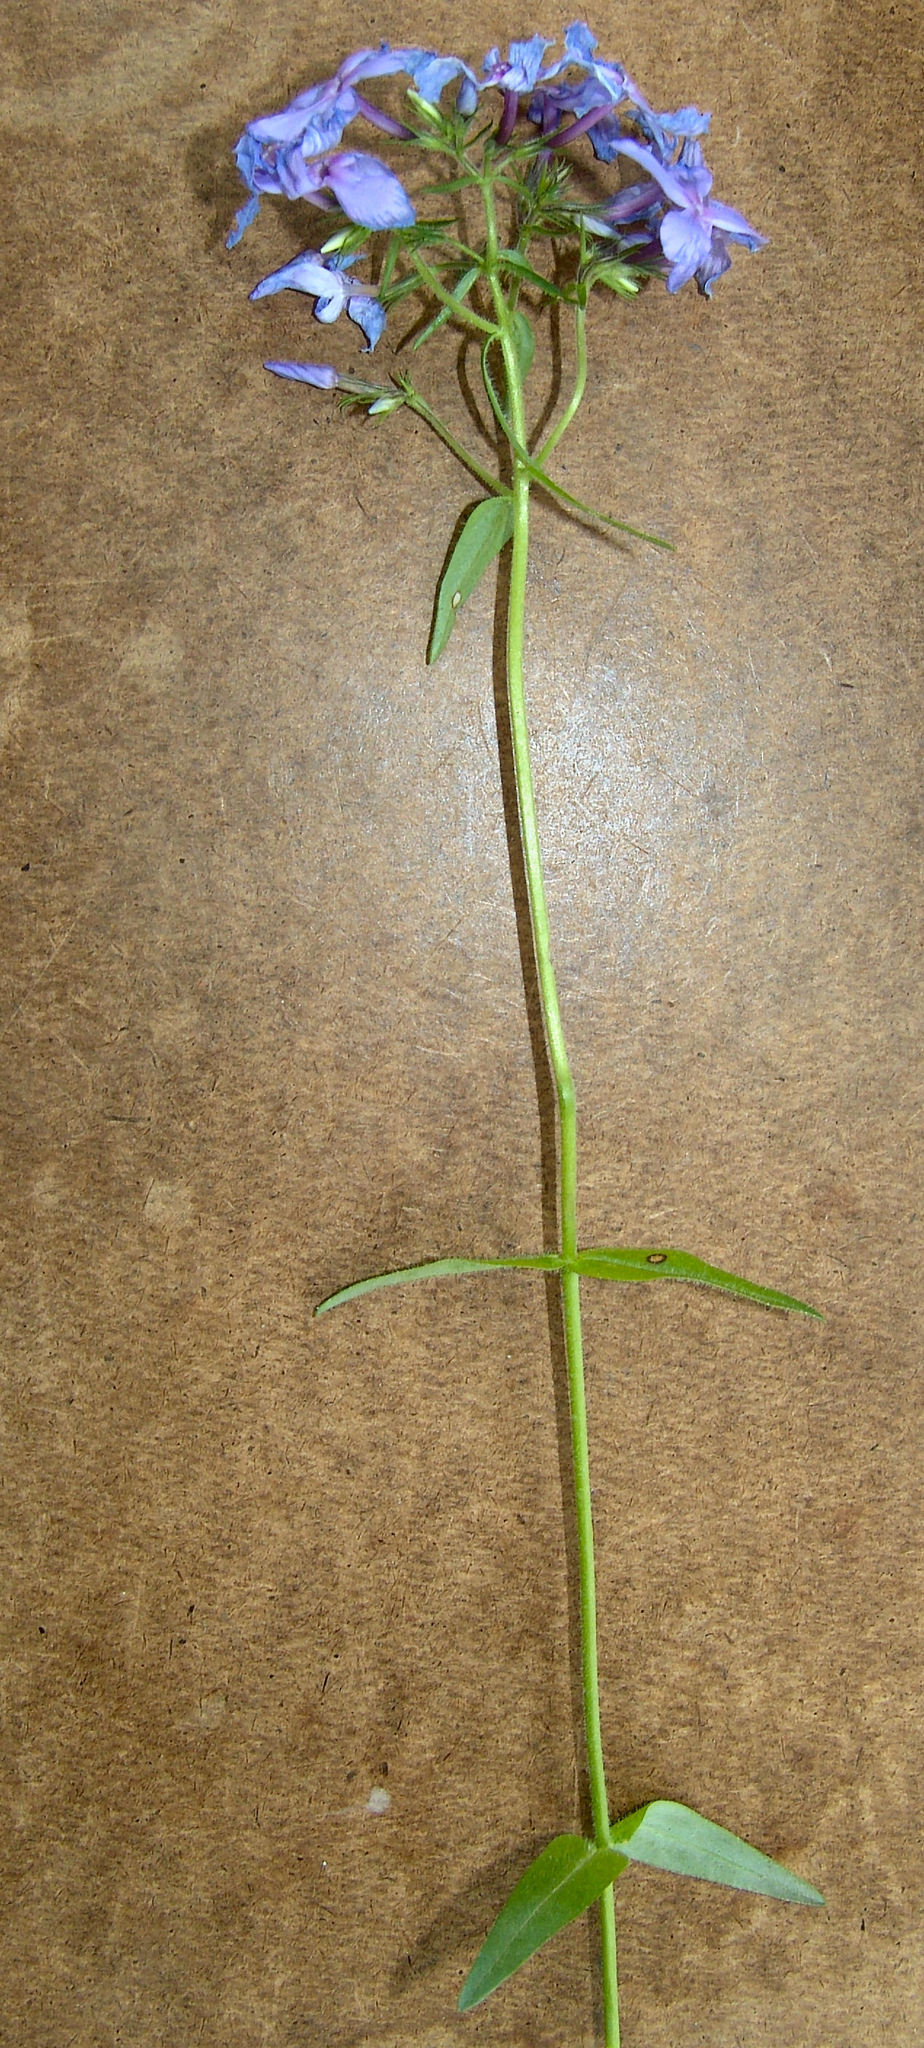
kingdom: Plantae
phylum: Tracheophyta
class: Magnoliopsida
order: Ericales
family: Polemoniaceae
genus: Phlox
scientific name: Phlox divaricata
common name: Blue phlox
